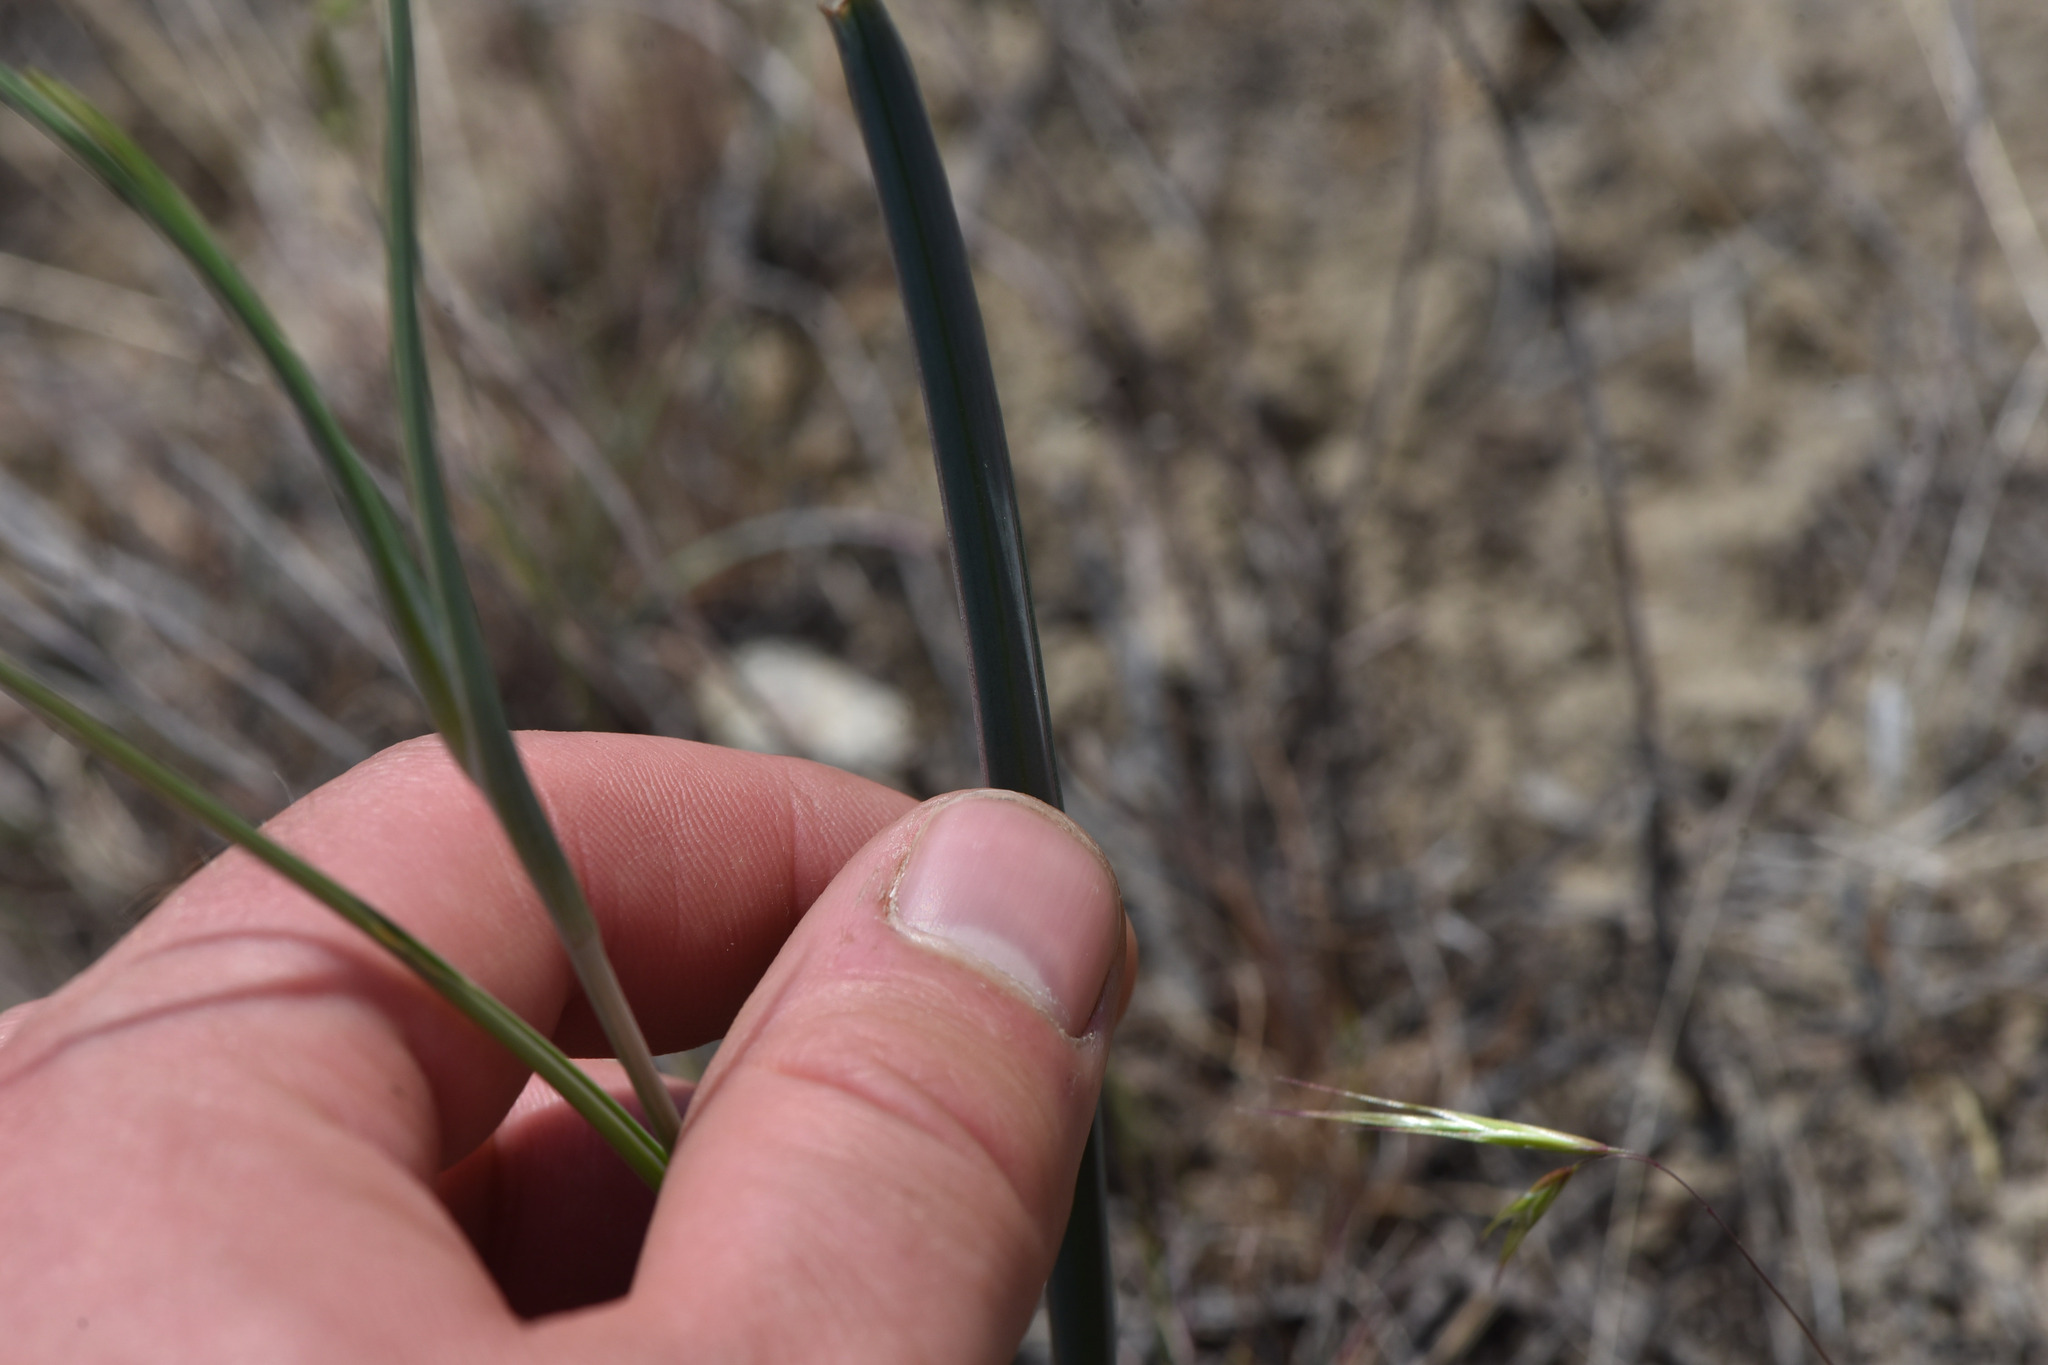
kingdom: Plantae
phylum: Tracheophyta
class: Liliopsida
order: Liliales
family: Liliaceae
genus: Calochortus
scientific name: Calochortus macrocarpus
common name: Green-band mariposa lily
